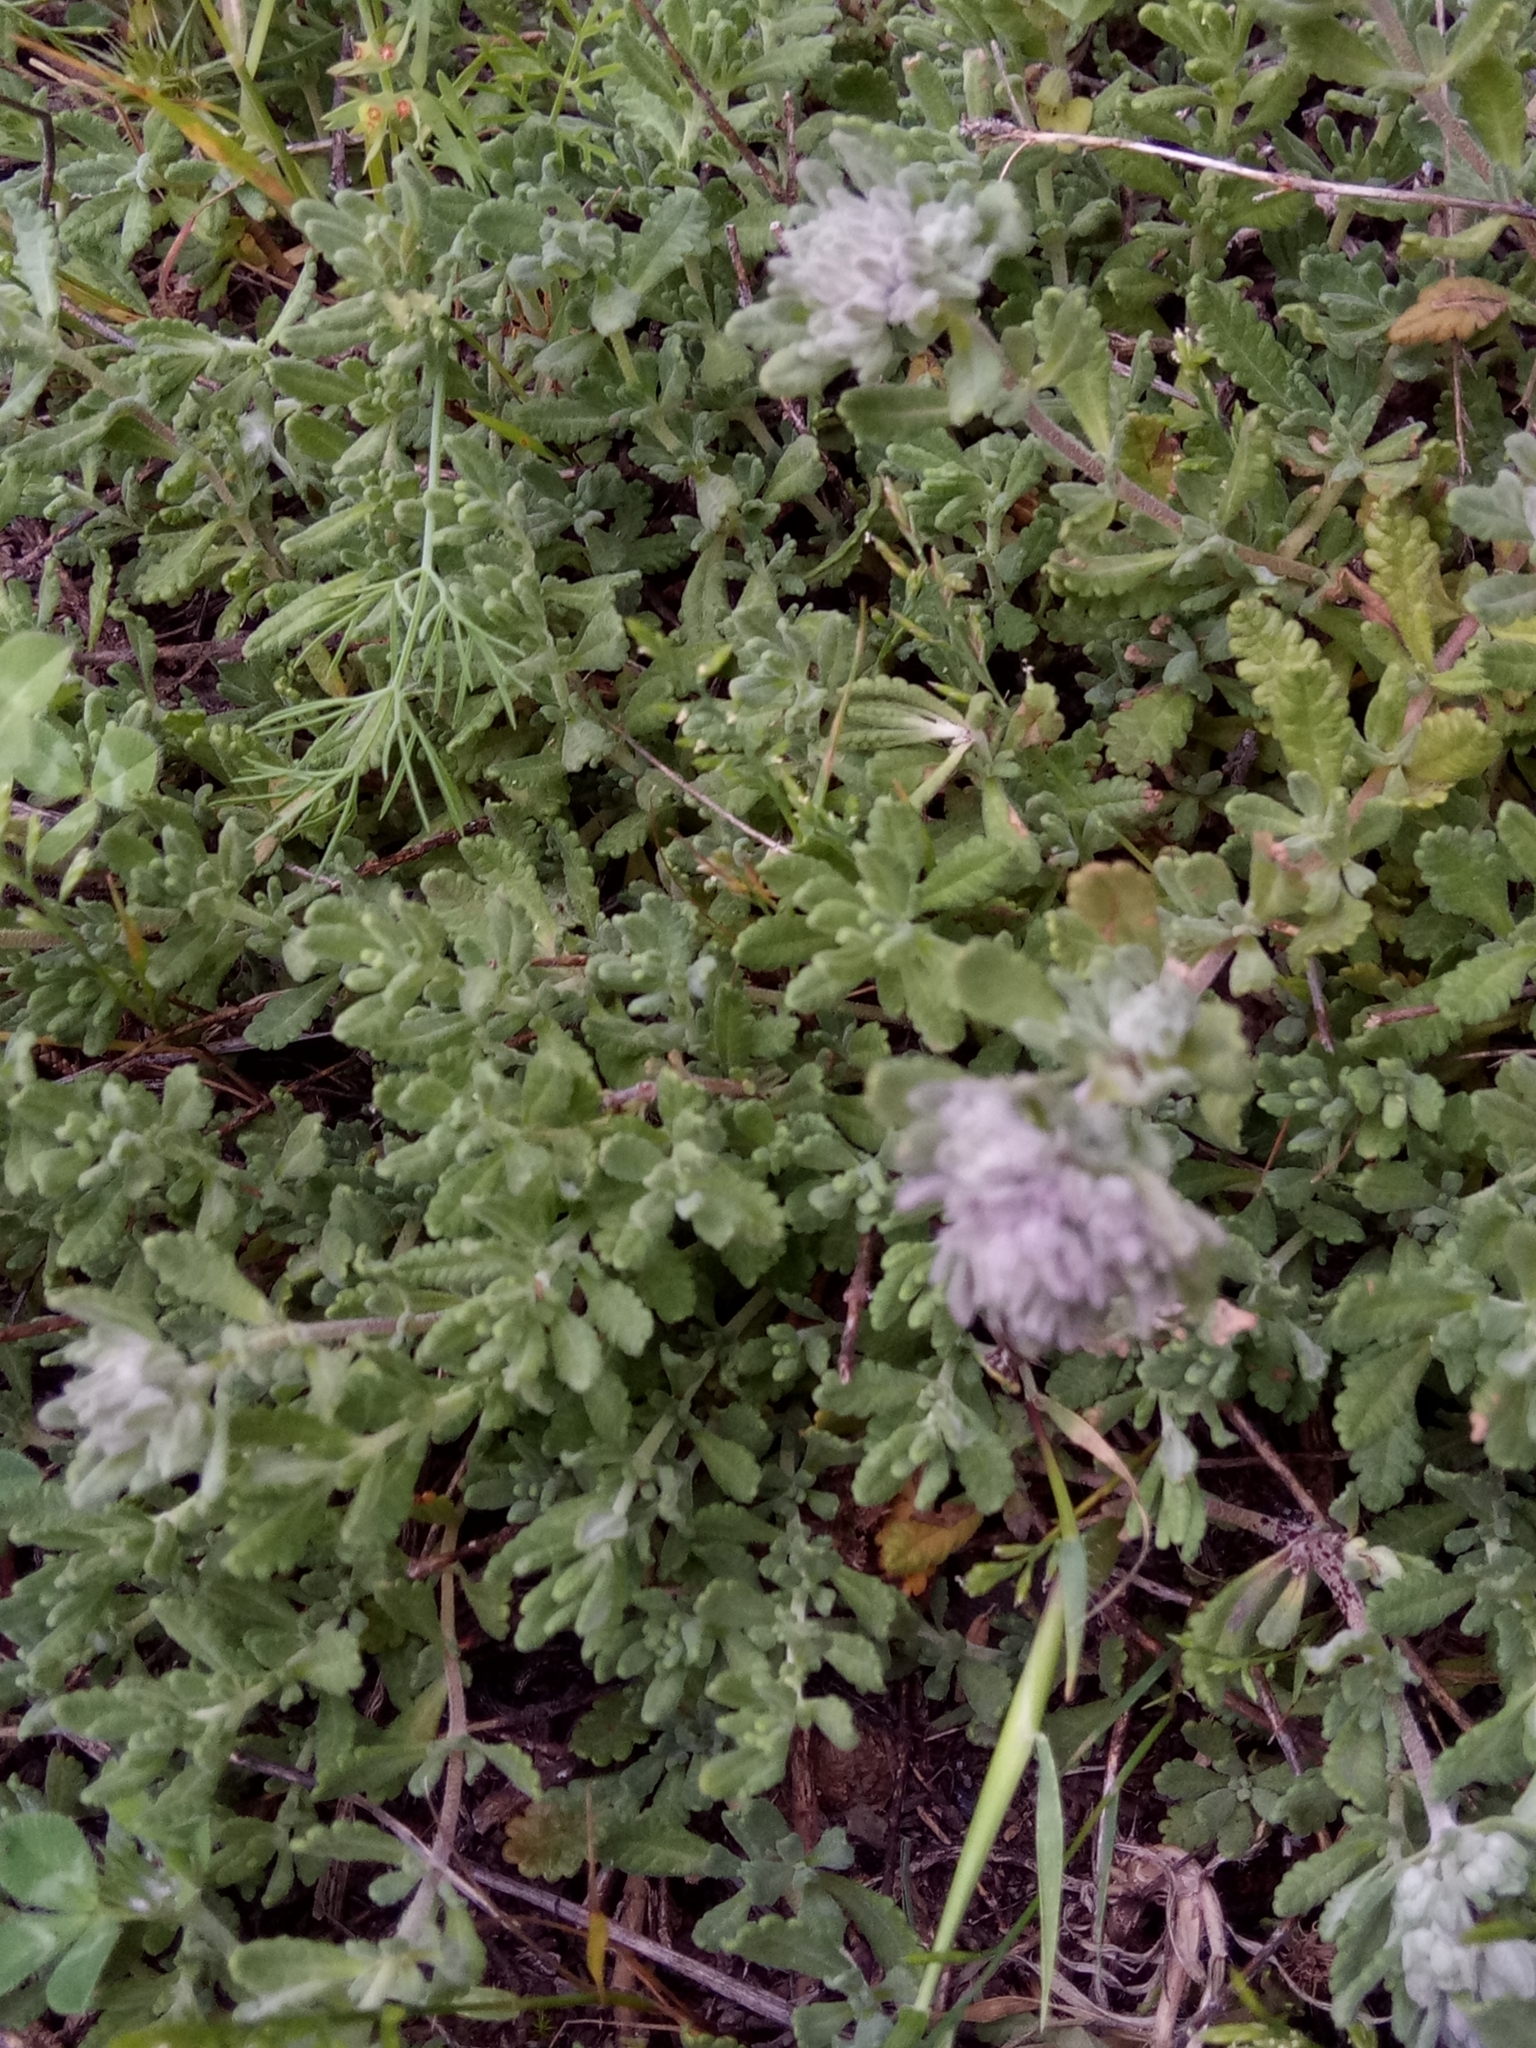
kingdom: Plantae
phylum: Tracheophyta
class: Magnoliopsida
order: Lamiales
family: Lamiaceae
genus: Teucrium
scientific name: Teucrium capitatum
